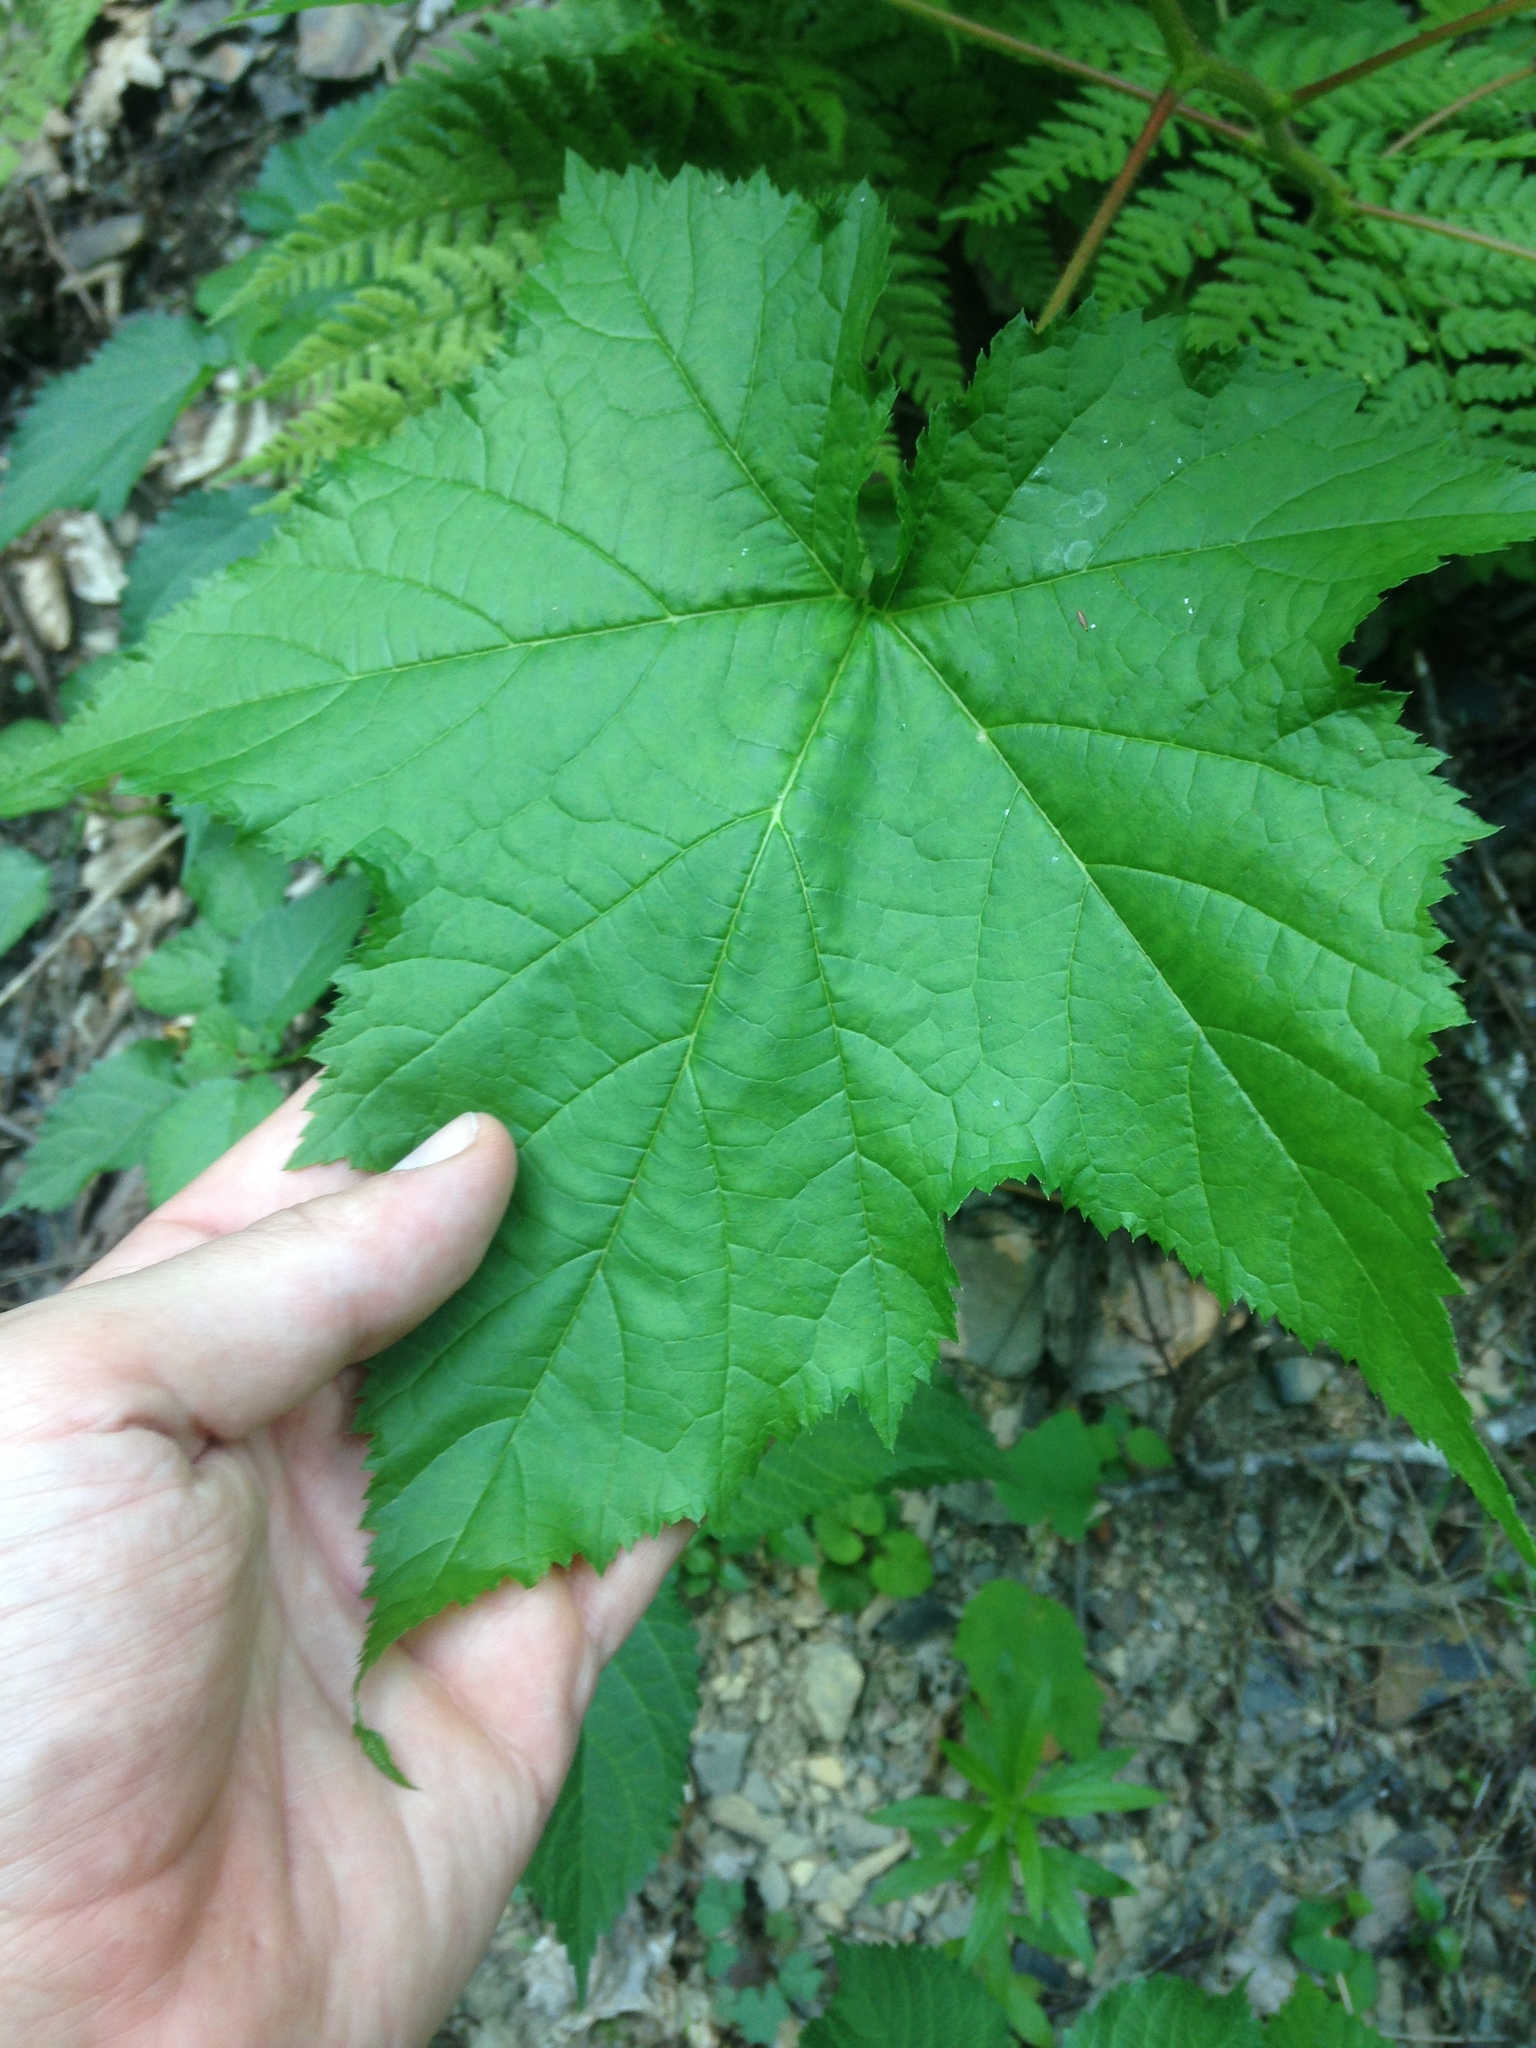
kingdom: Plantae
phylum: Tracheophyta
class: Magnoliopsida
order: Rosales
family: Rosaceae
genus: Rubus
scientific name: Rubus odoratus
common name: Purple-flowered raspberry
